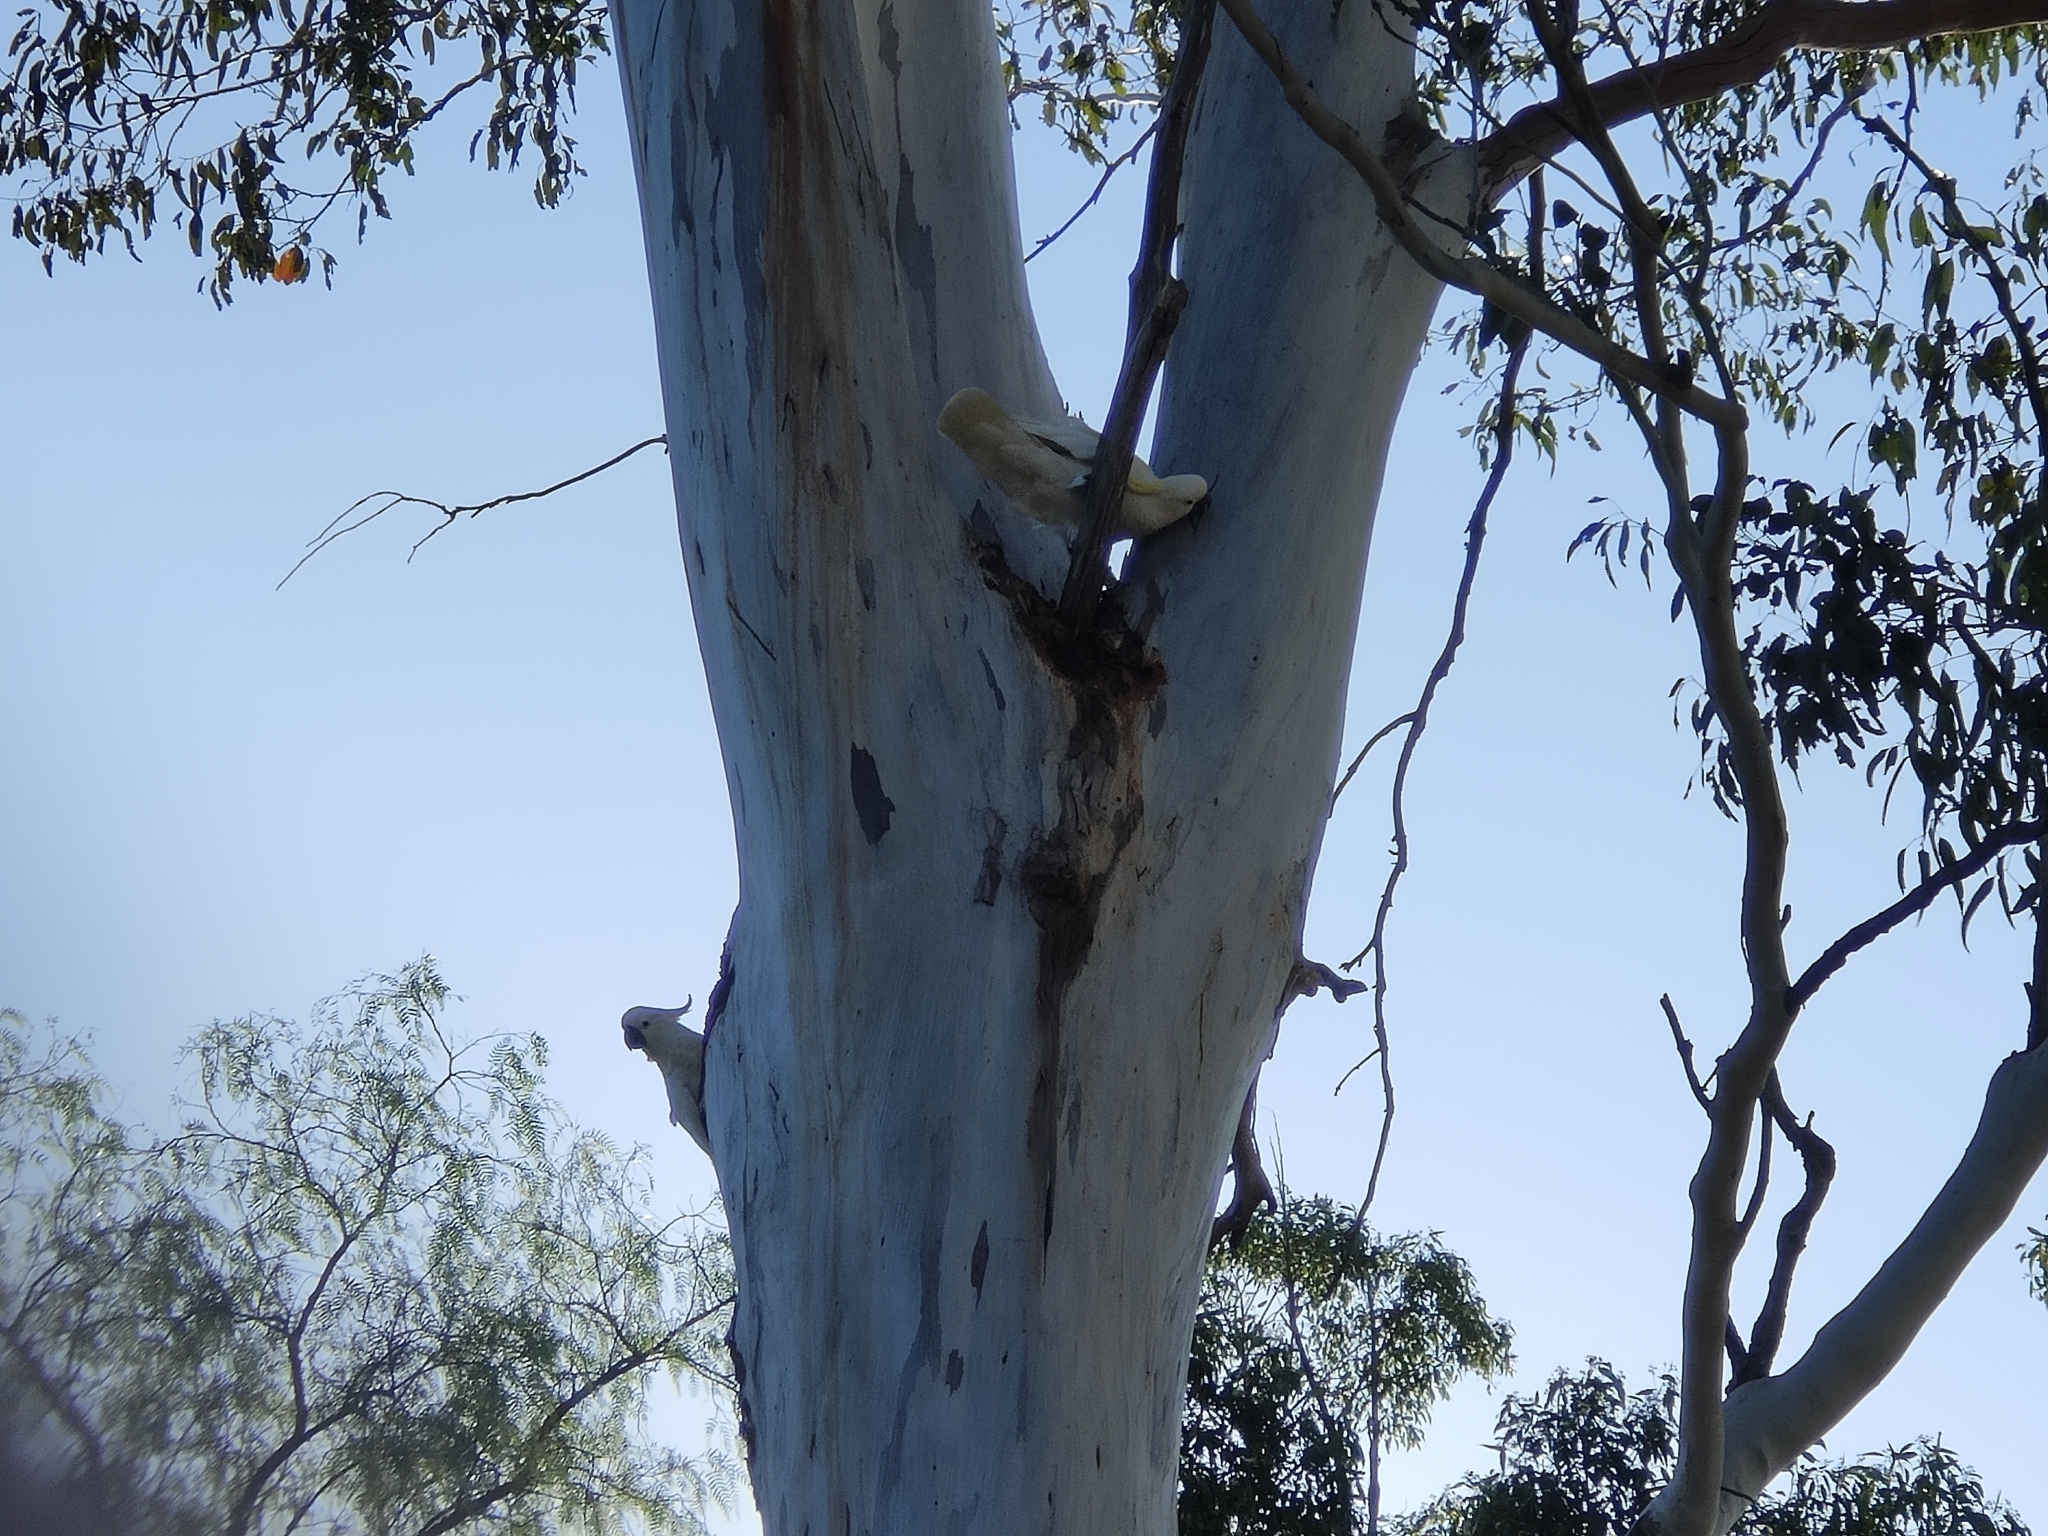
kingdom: Animalia
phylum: Chordata
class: Aves
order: Psittaciformes
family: Psittacidae
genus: Cacatua
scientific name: Cacatua galerita
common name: Sulphur-crested cockatoo
